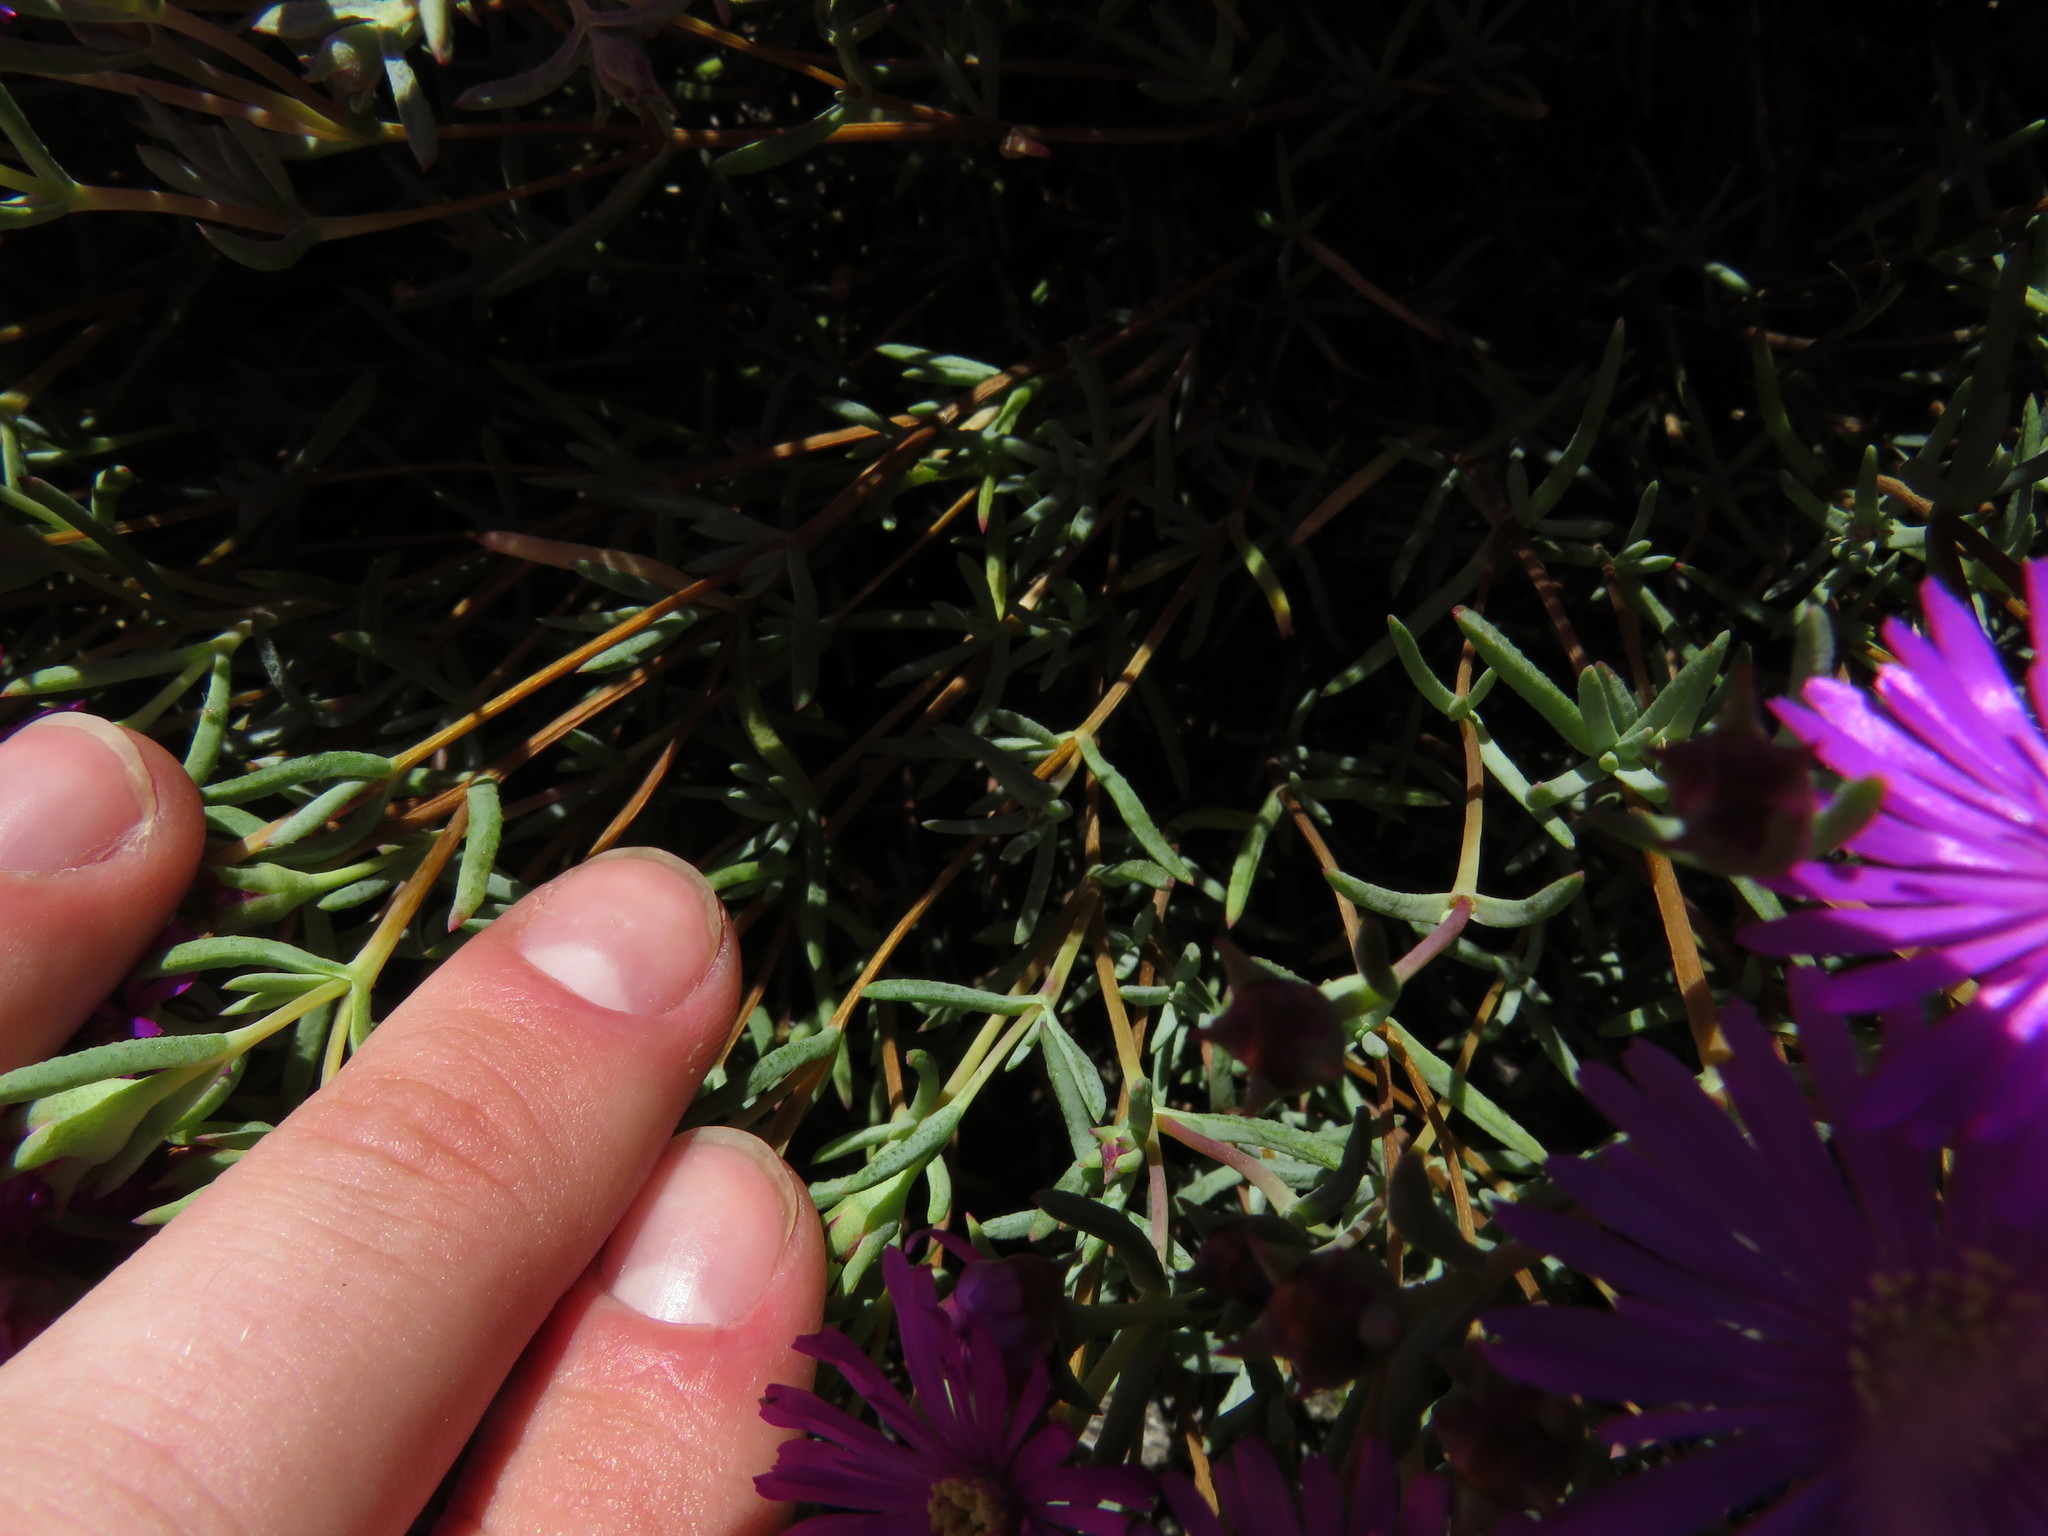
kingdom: Plantae
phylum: Tracheophyta
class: Magnoliopsida
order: Caryophyllales
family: Aizoaceae
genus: Lampranthus
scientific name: Lampranthus emarginatus
